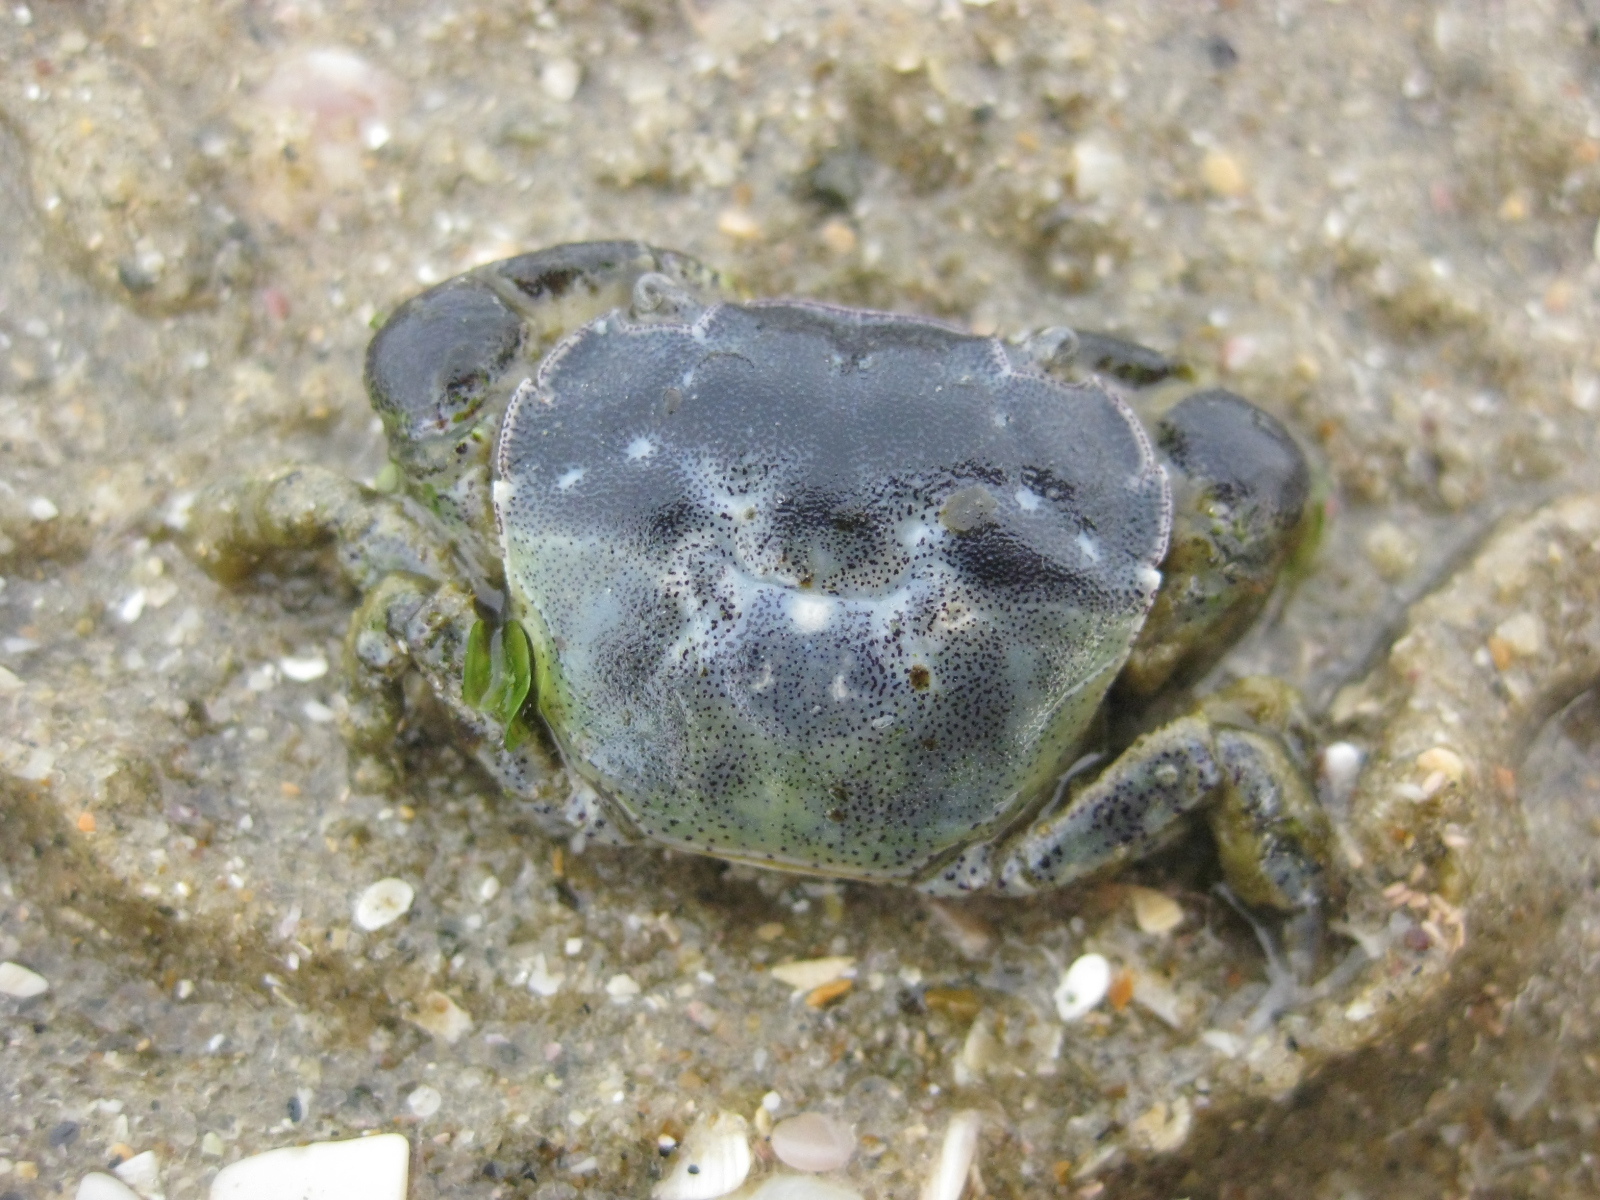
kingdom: Animalia
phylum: Arthropoda
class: Malacostraca
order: Decapoda
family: Varunidae
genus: Hemigrapsus
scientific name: Hemigrapsus crenulatus
